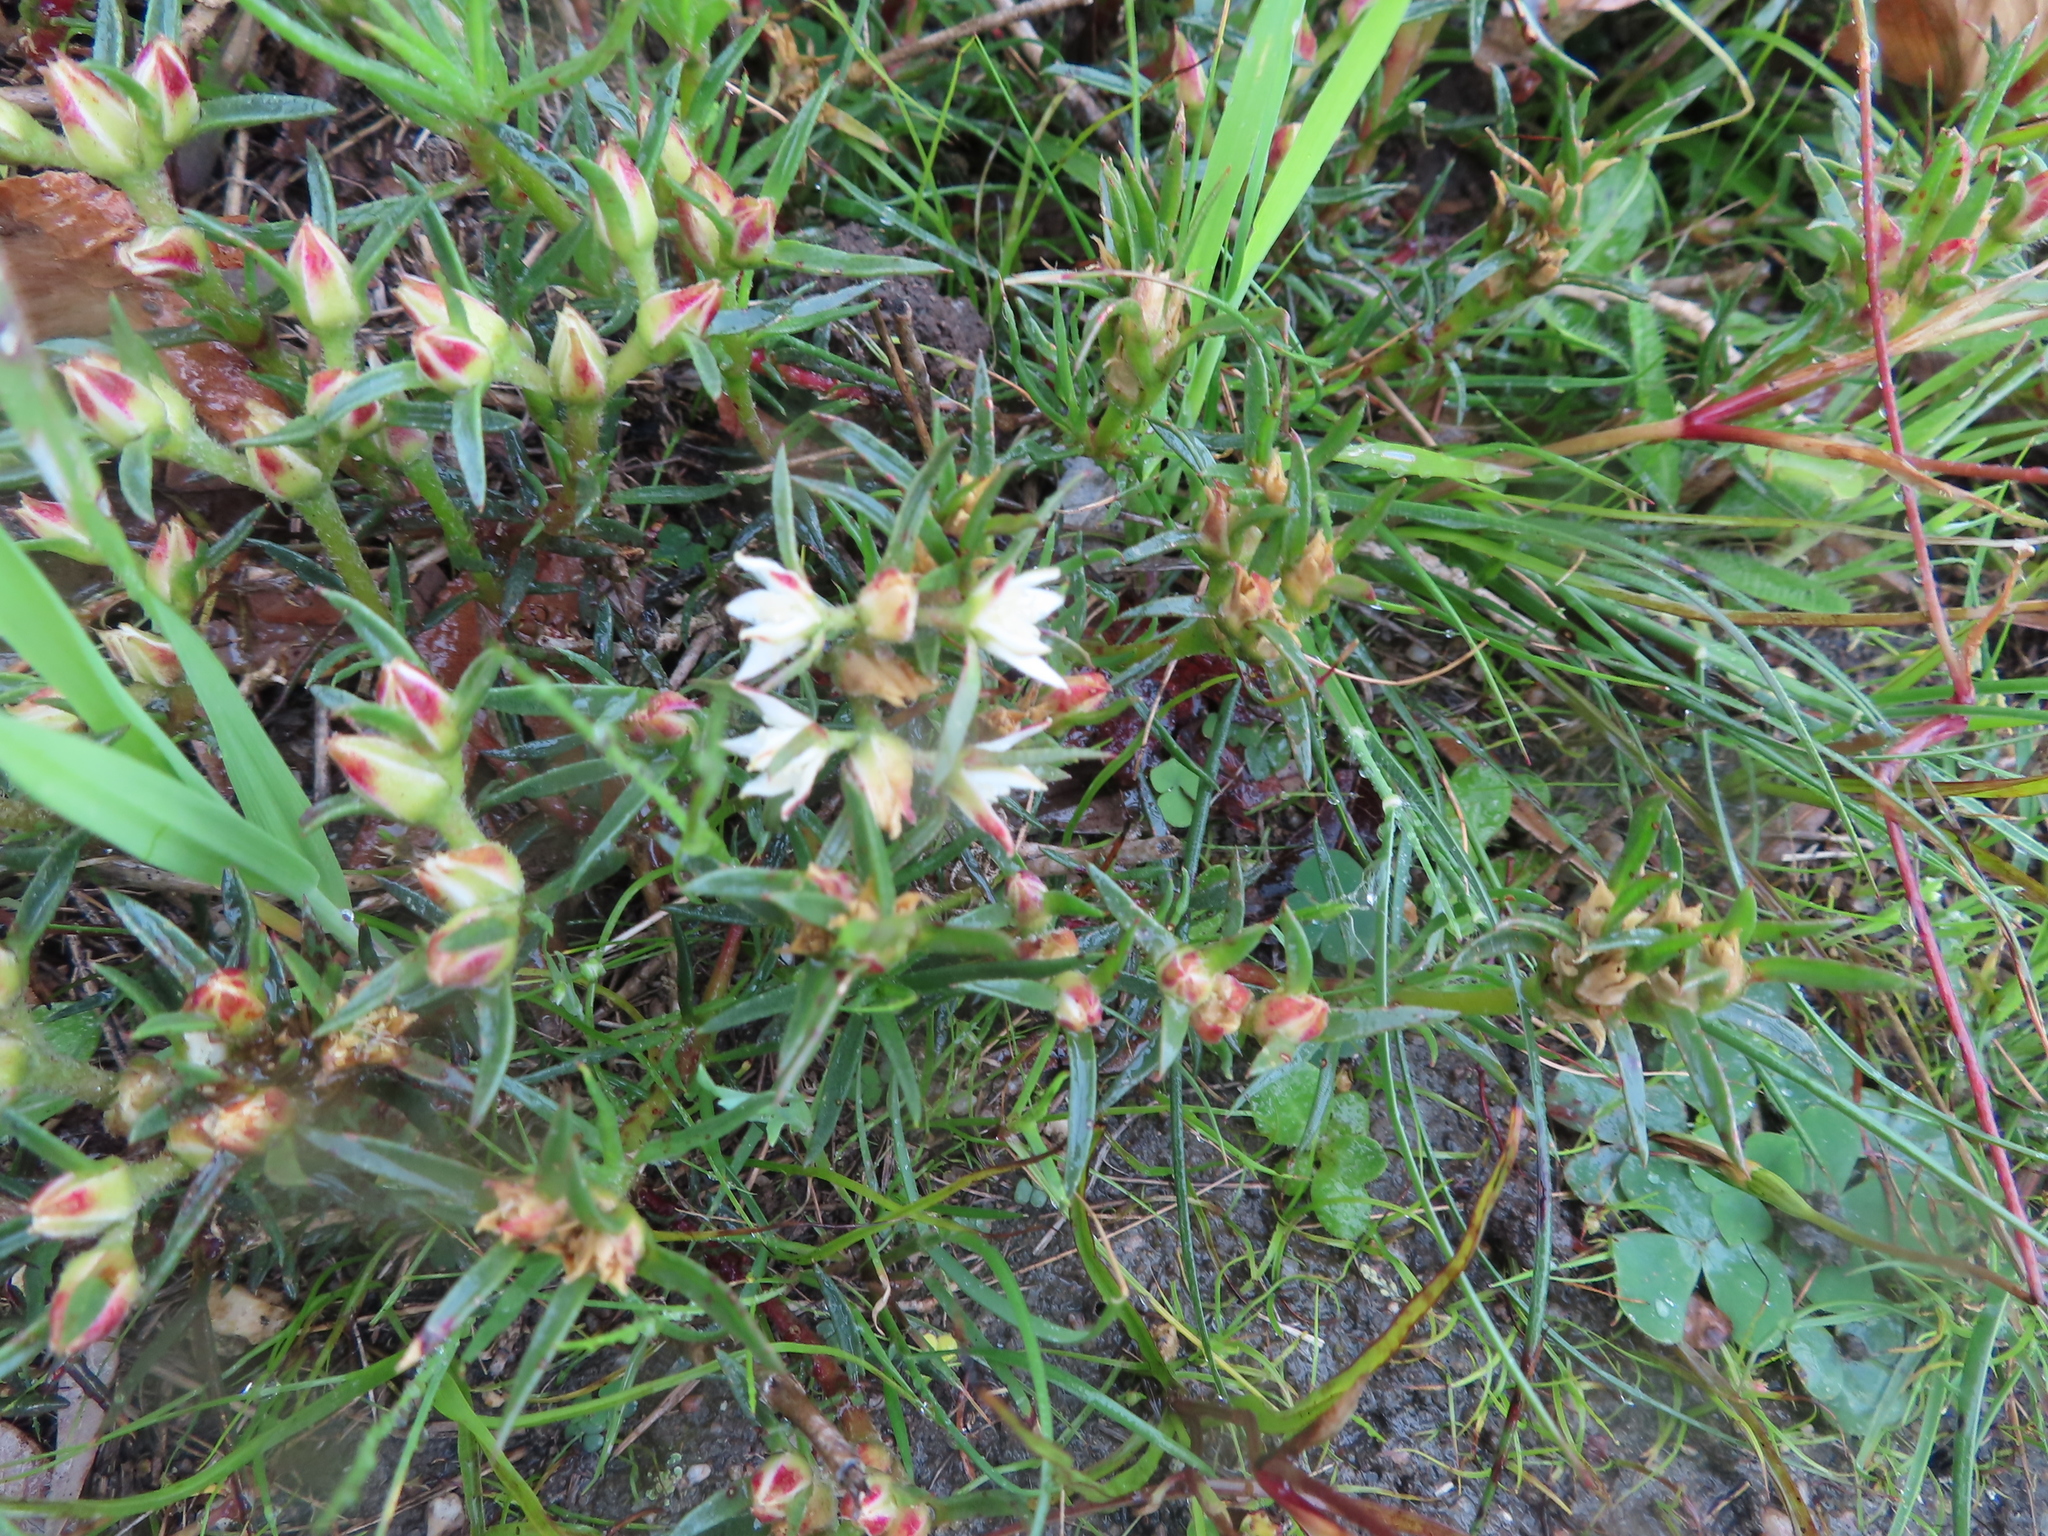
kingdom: Plantae
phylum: Tracheophyta
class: Magnoliopsida
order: Caryophyllales
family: Aizoaceae
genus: Aizoon
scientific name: Aizoon sarmentosum
